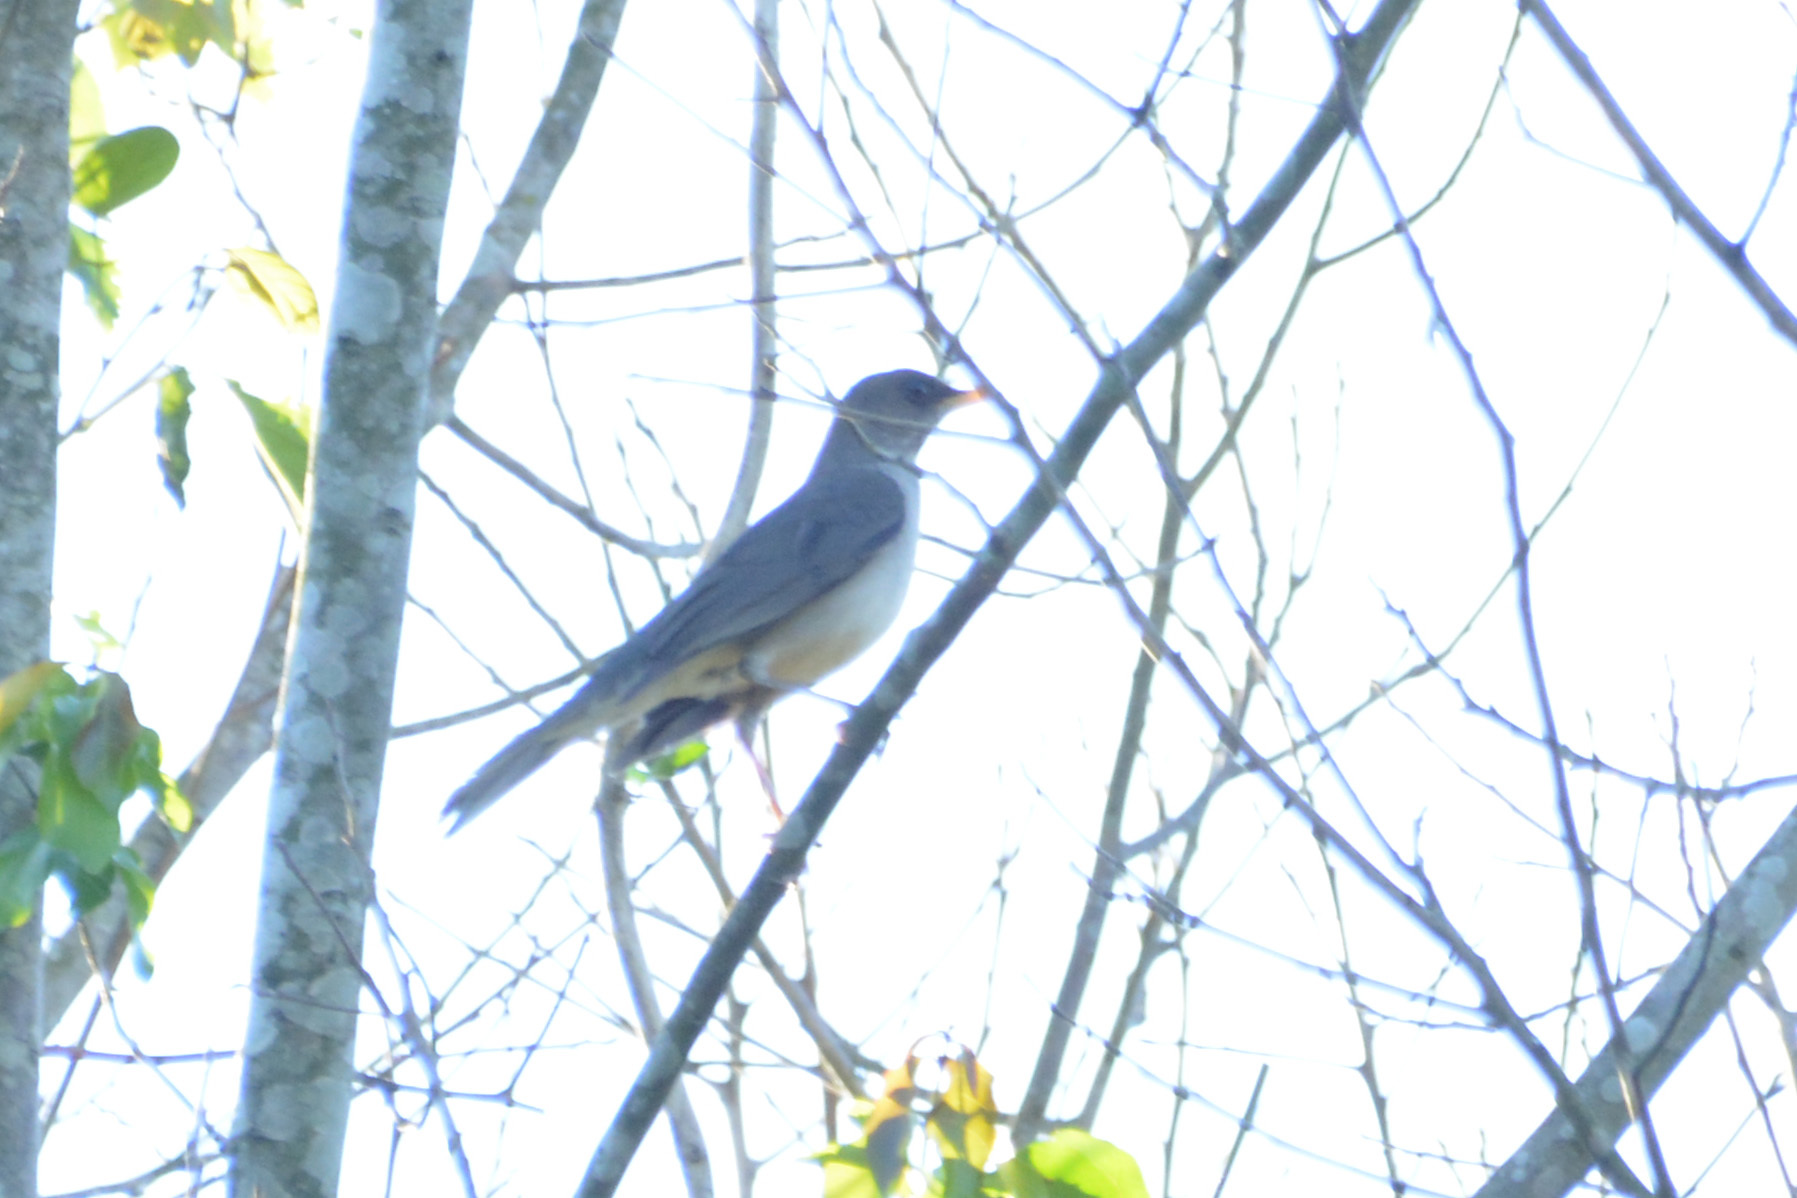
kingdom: Animalia
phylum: Chordata
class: Aves
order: Passeriformes
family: Turdidae
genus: Turdus
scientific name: Turdus amaurochalinus
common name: Creamy-bellied thrush
